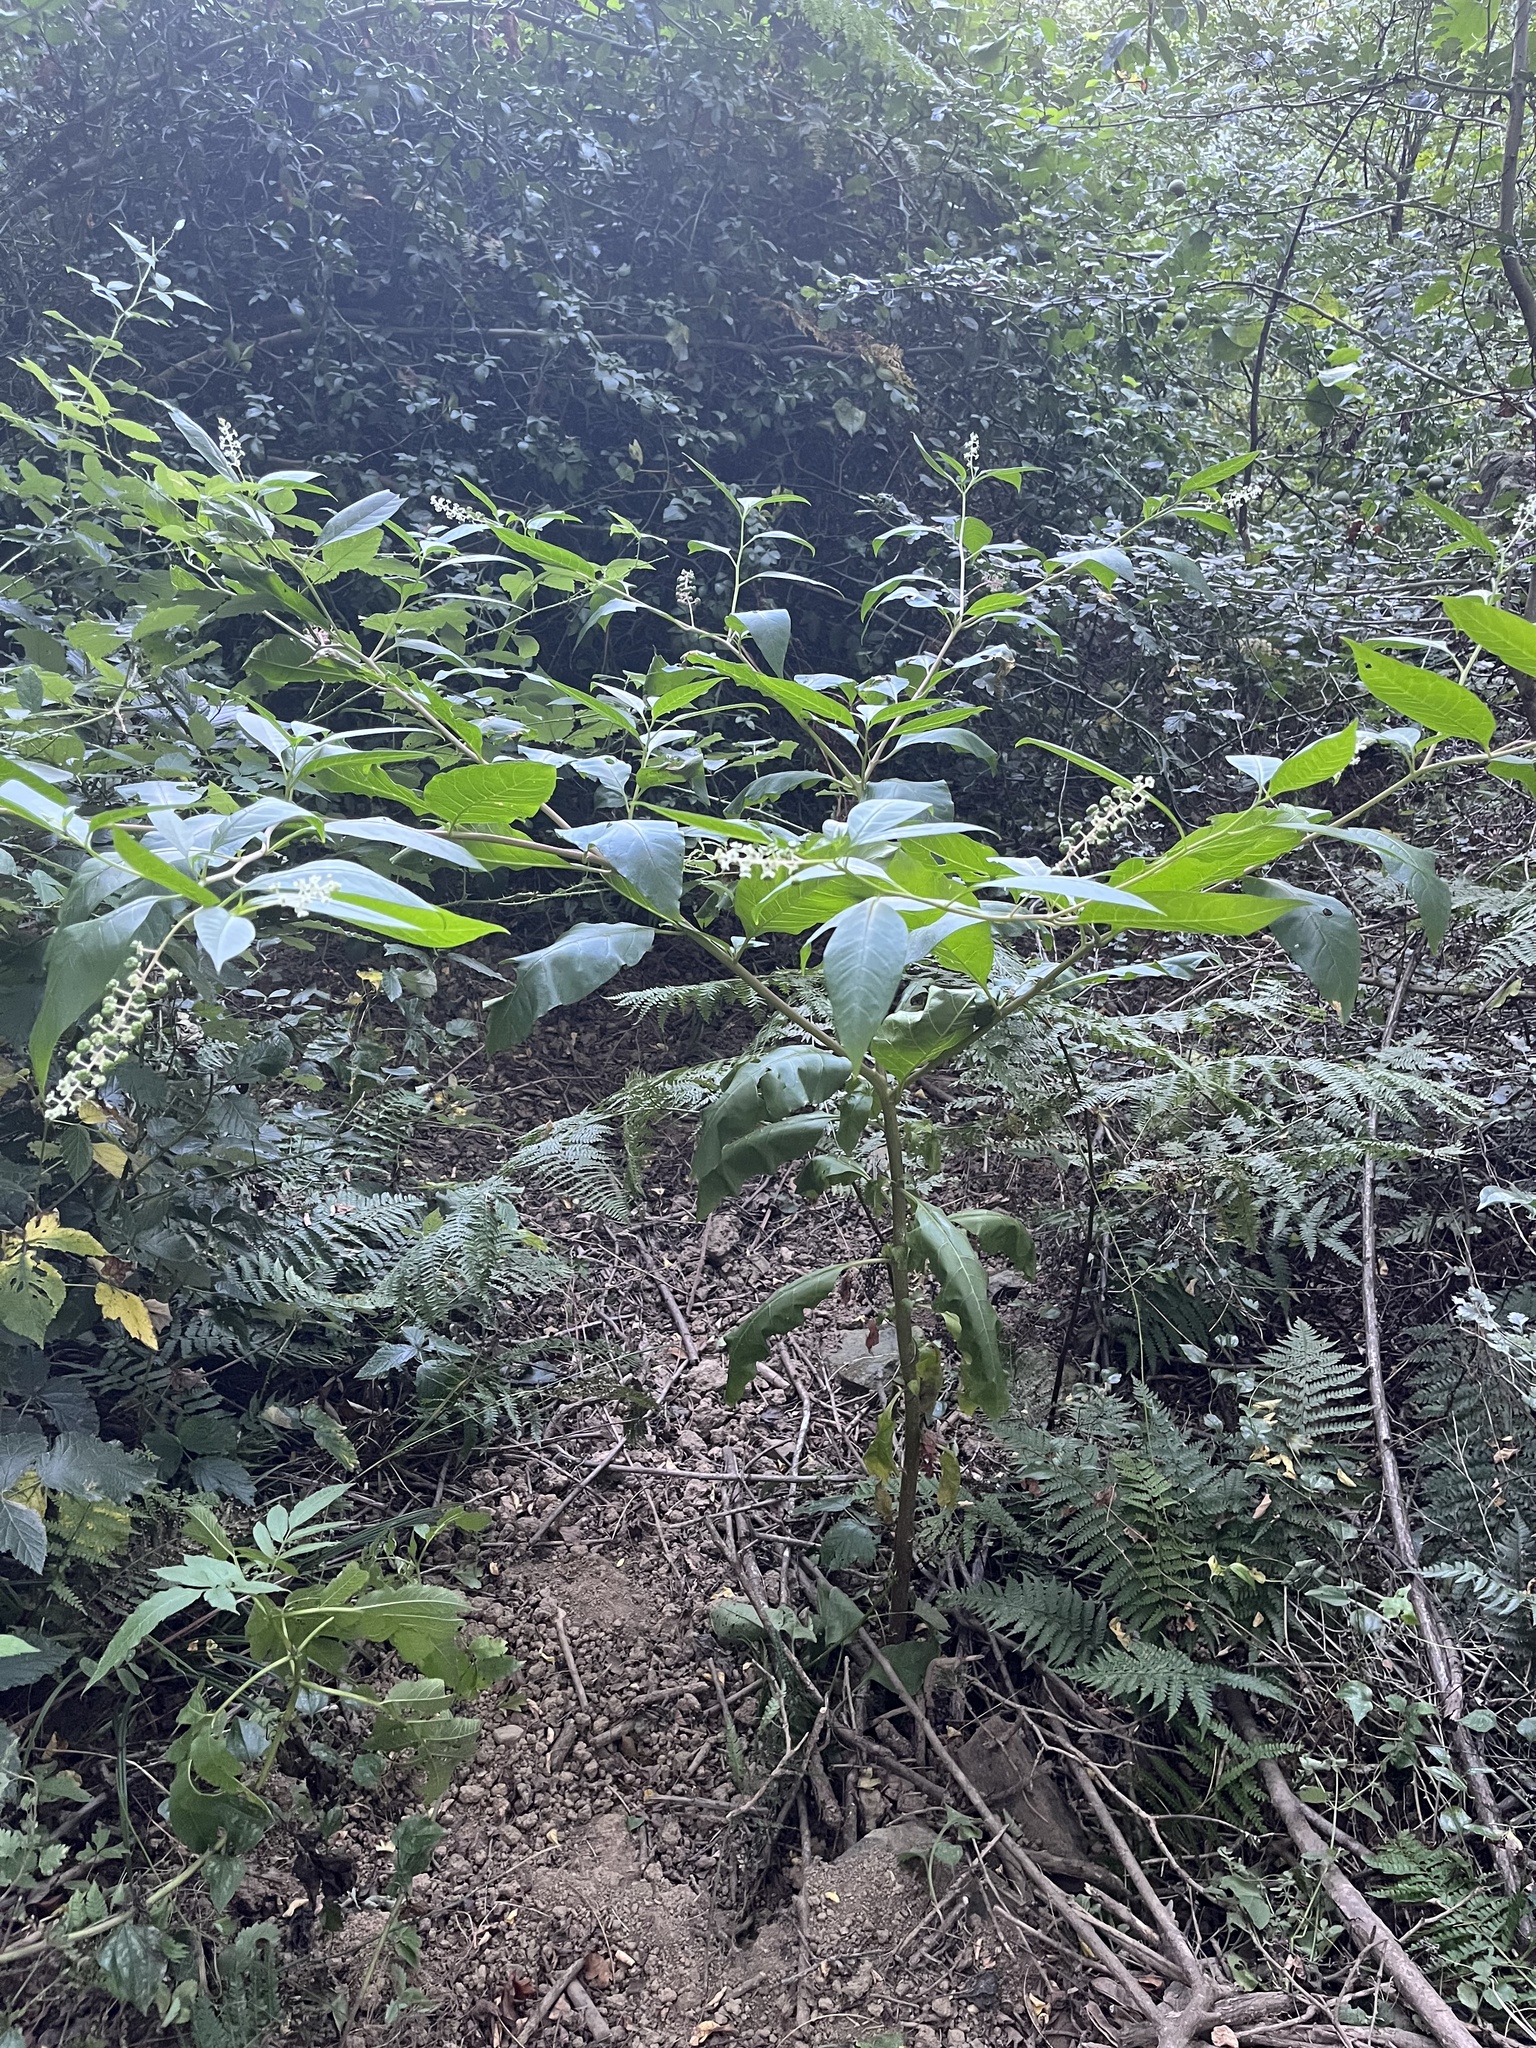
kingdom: Plantae
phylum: Tracheophyta
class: Magnoliopsida
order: Caryophyllales
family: Phytolaccaceae
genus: Phytolacca
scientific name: Phytolacca americana
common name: American pokeweed
